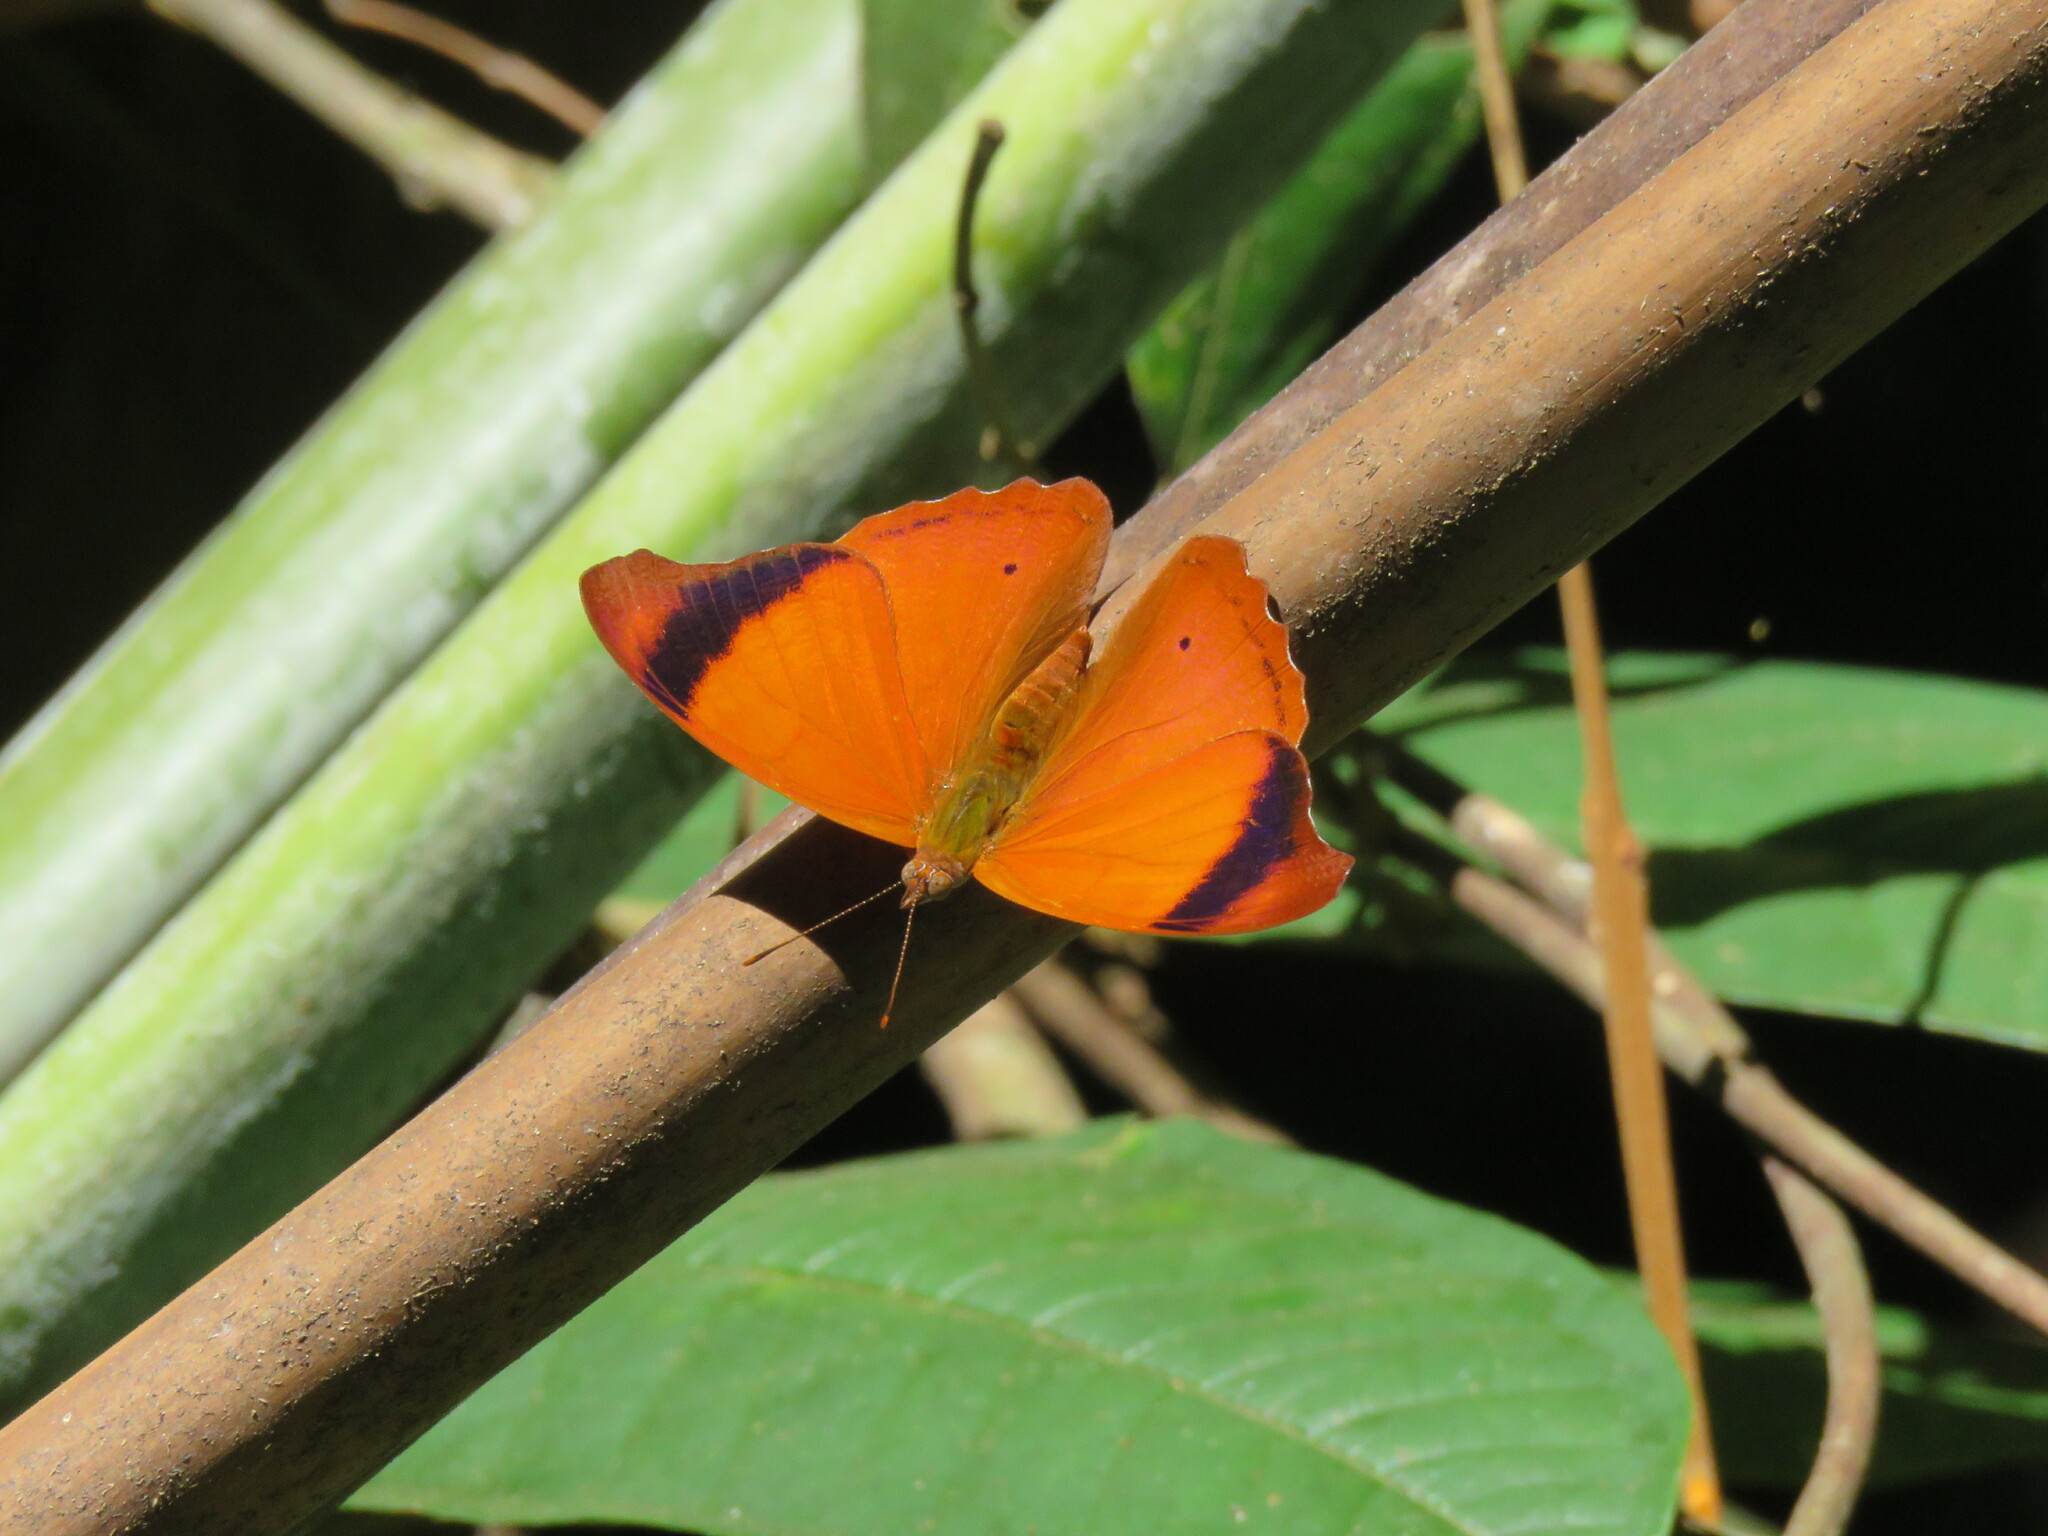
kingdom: Animalia
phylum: Arthropoda
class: Insecta
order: Lepidoptera
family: Nymphalidae
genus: Temenis
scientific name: Temenis laothoe
